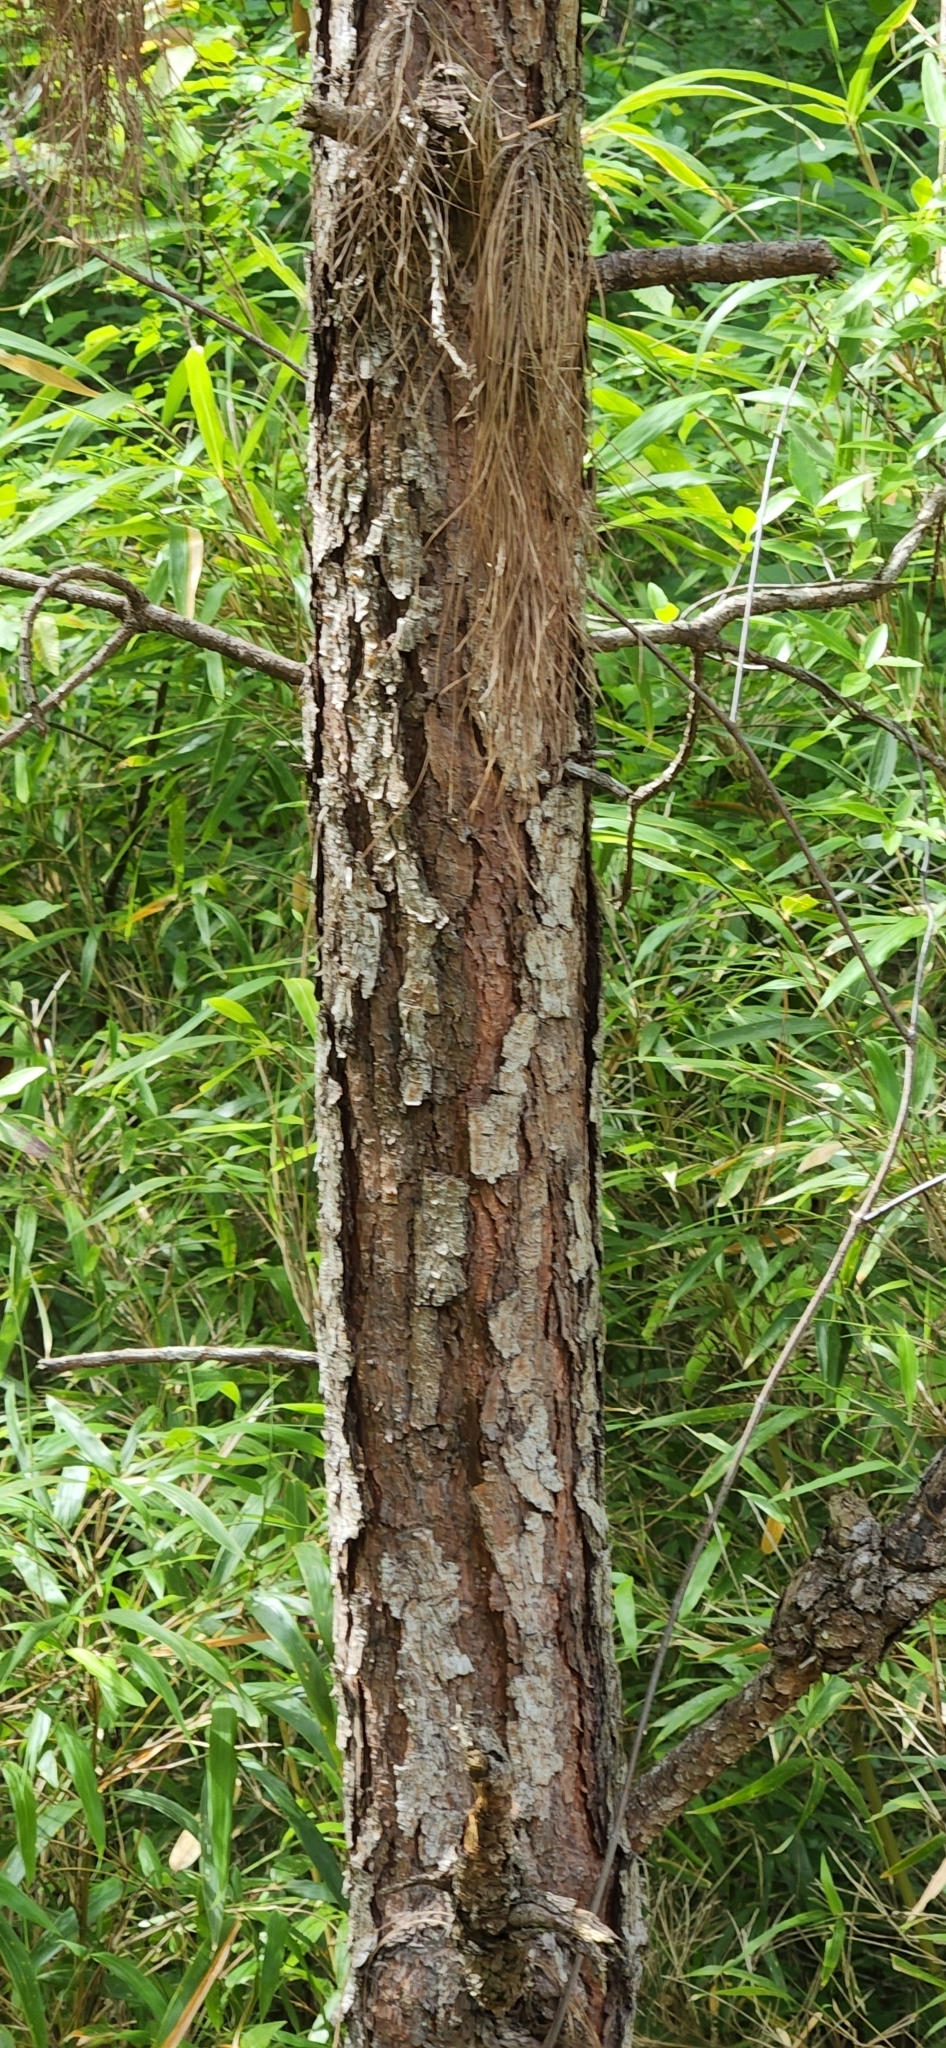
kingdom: Plantae
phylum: Tracheophyta
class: Pinopsida
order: Pinales
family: Pinaceae
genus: Pinus
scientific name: Pinus taeda
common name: Loblolly pine
